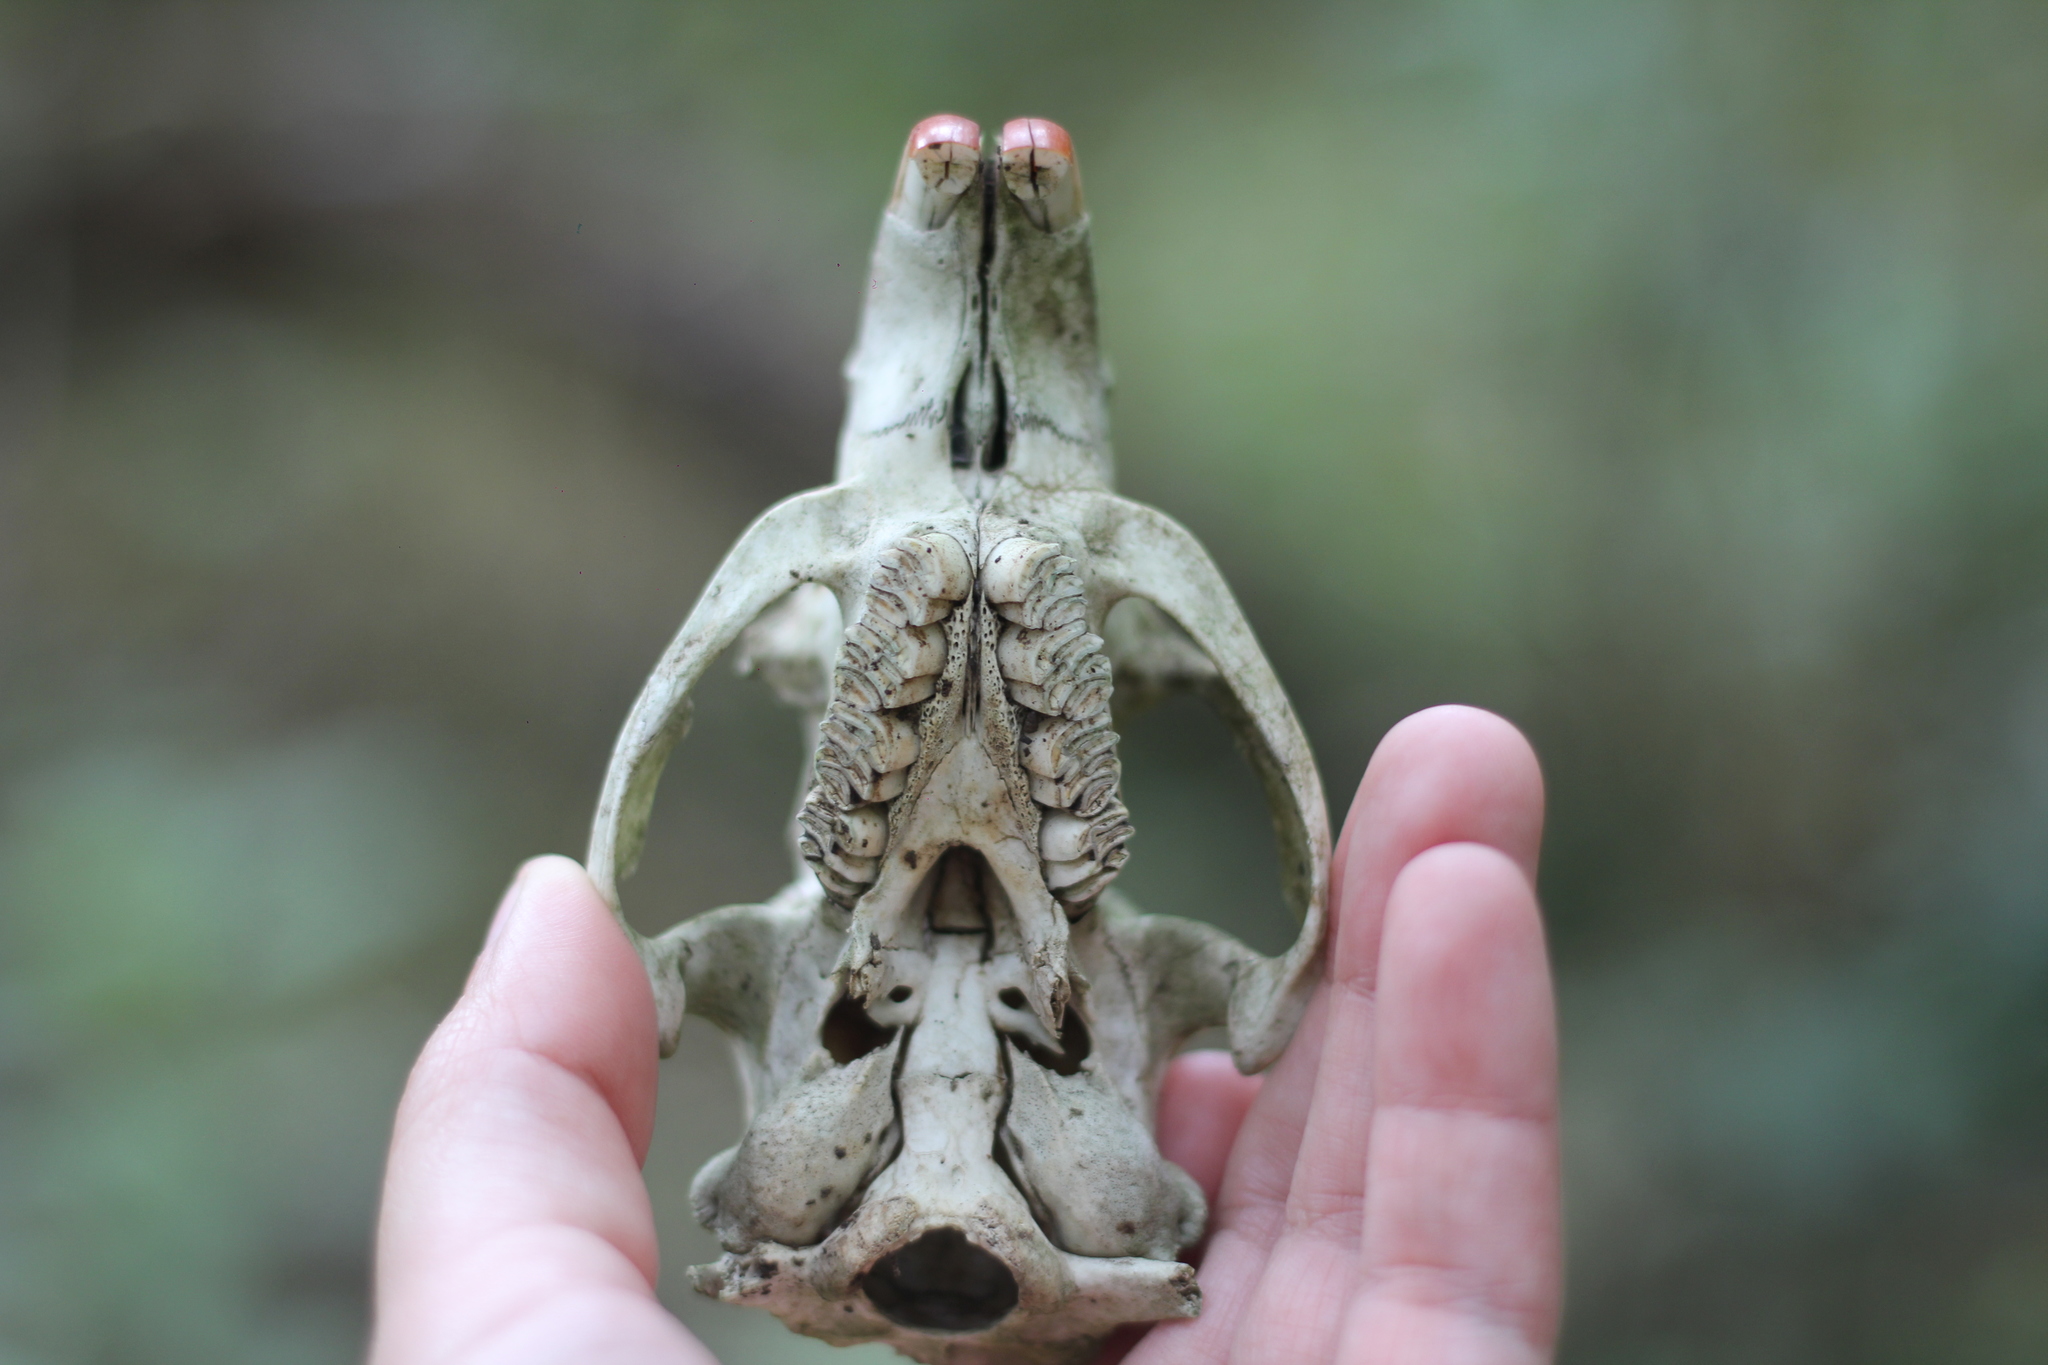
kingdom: Animalia
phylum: Chordata
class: Mammalia
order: Rodentia
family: Myocastoridae
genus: Myocastor
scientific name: Myocastor coypus
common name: Coypu
